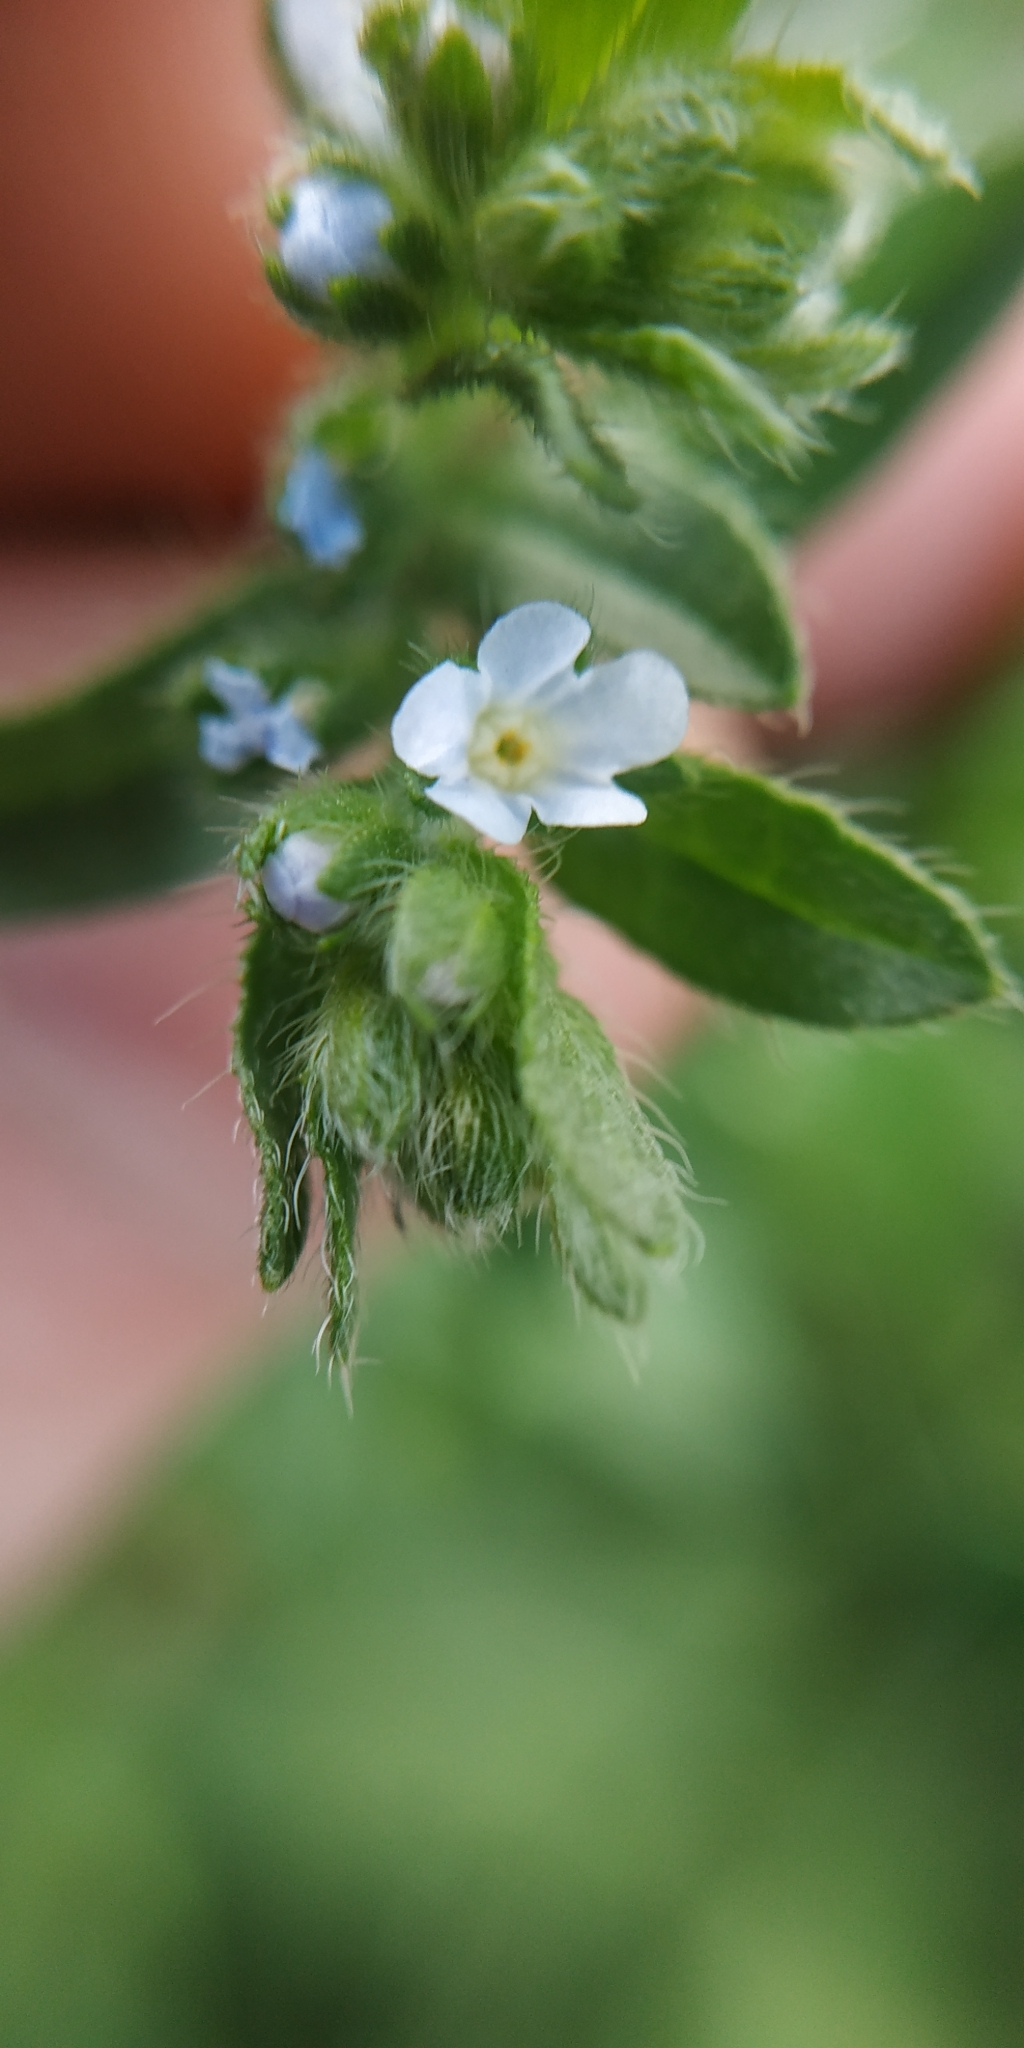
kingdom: Plantae
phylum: Tracheophyta
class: Magnoliopsida
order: Boraginales
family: Boraginaceae
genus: Lappula
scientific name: Lappula squarrosa
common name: European stickseed
